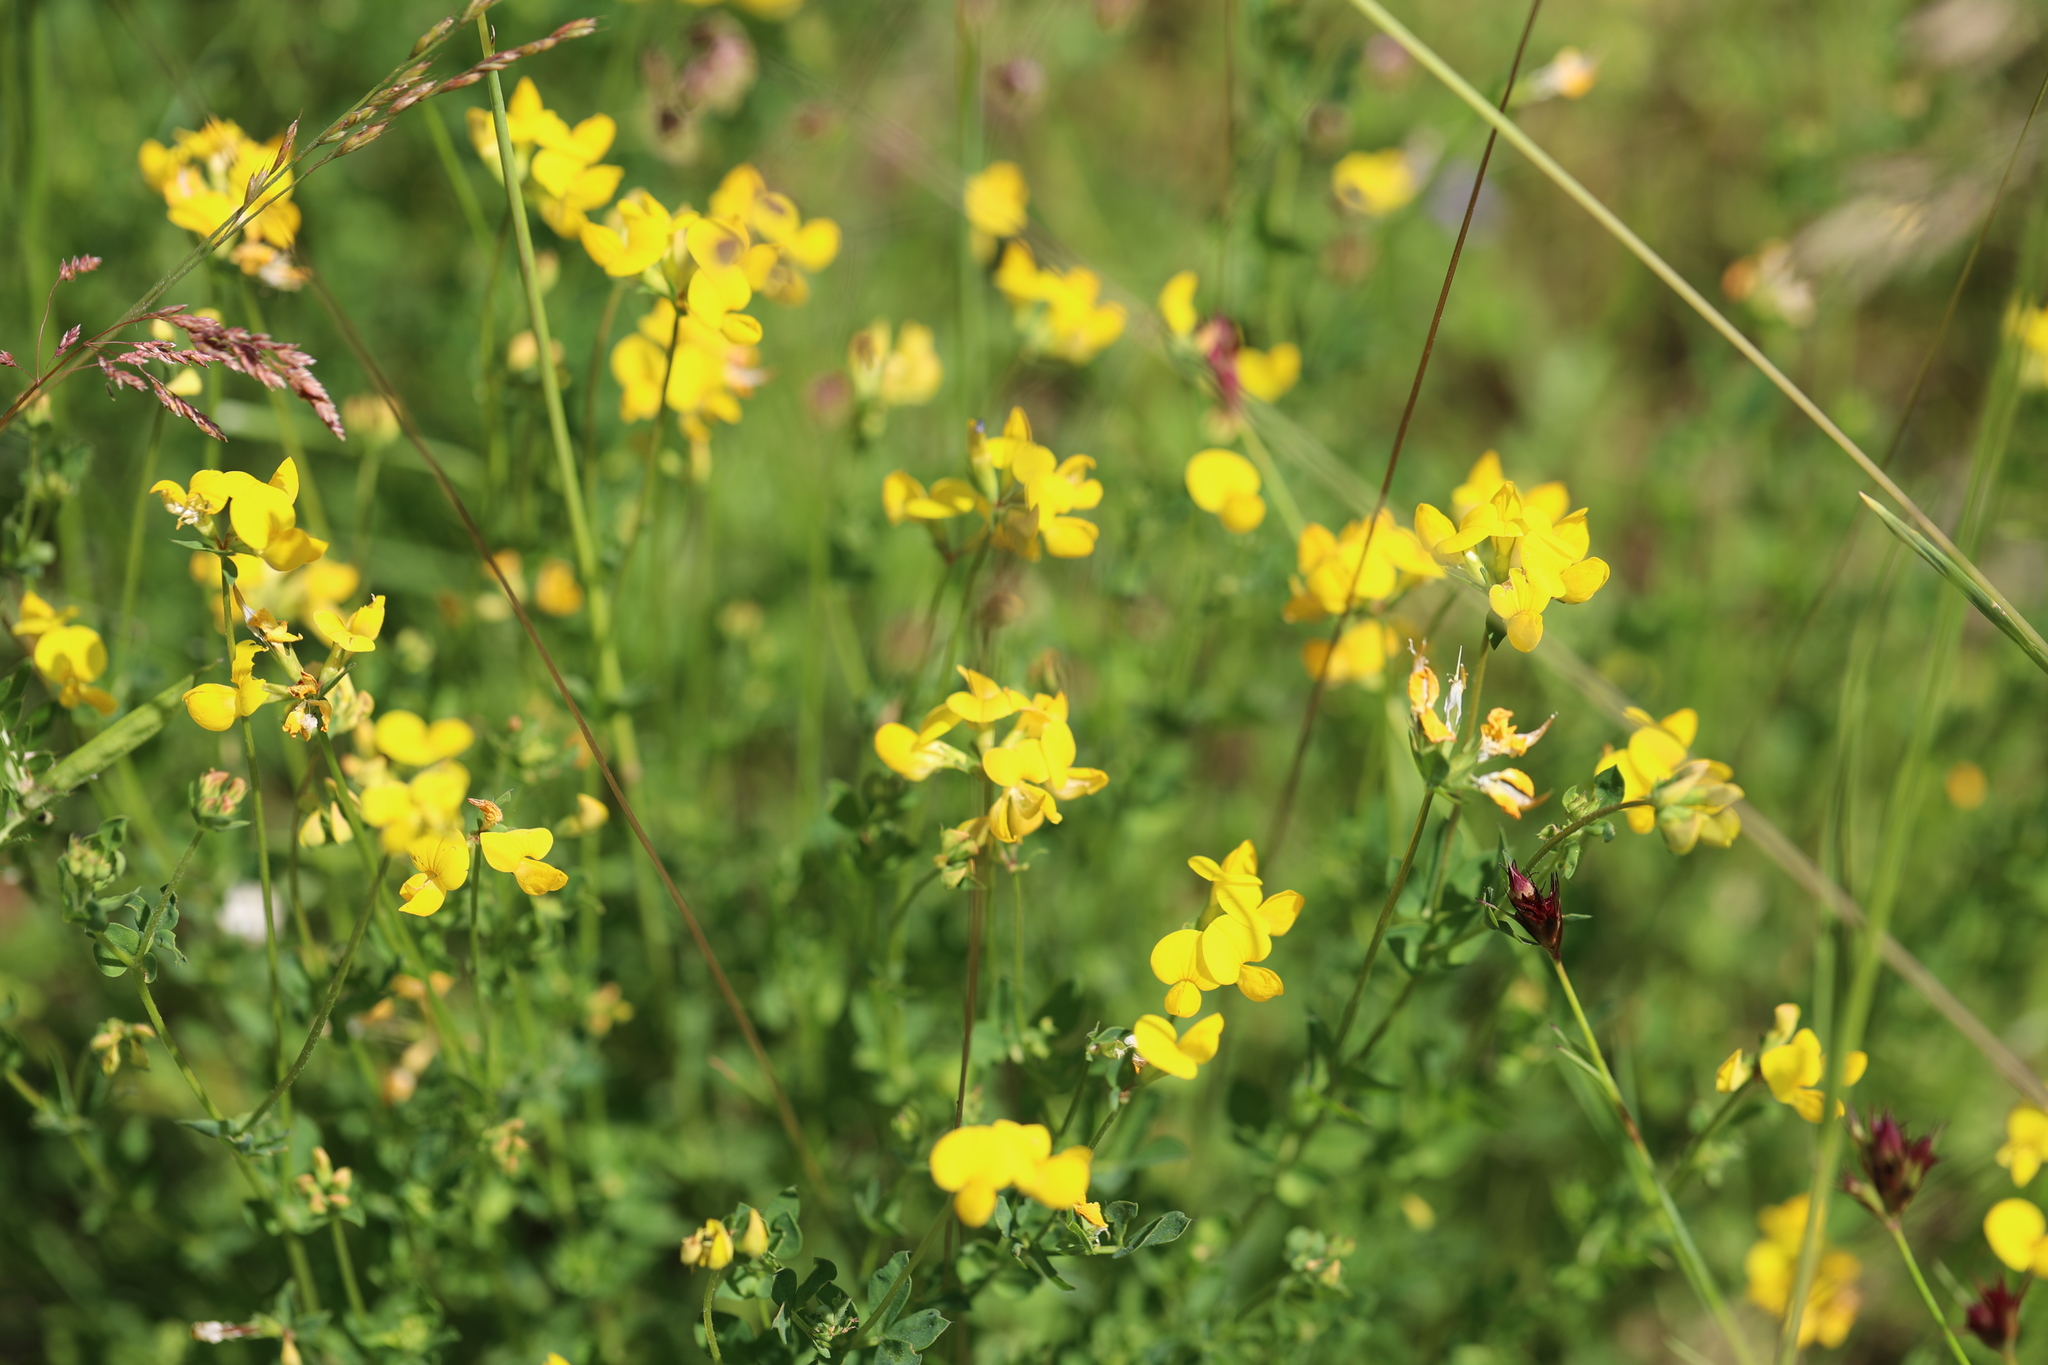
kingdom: Plantae
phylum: Tracheophyta
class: Magnoliopsida
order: Fabales
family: Fabaceae
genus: Lotus
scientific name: Lotus corniculatus
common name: Common bird's-foot-trefoil
